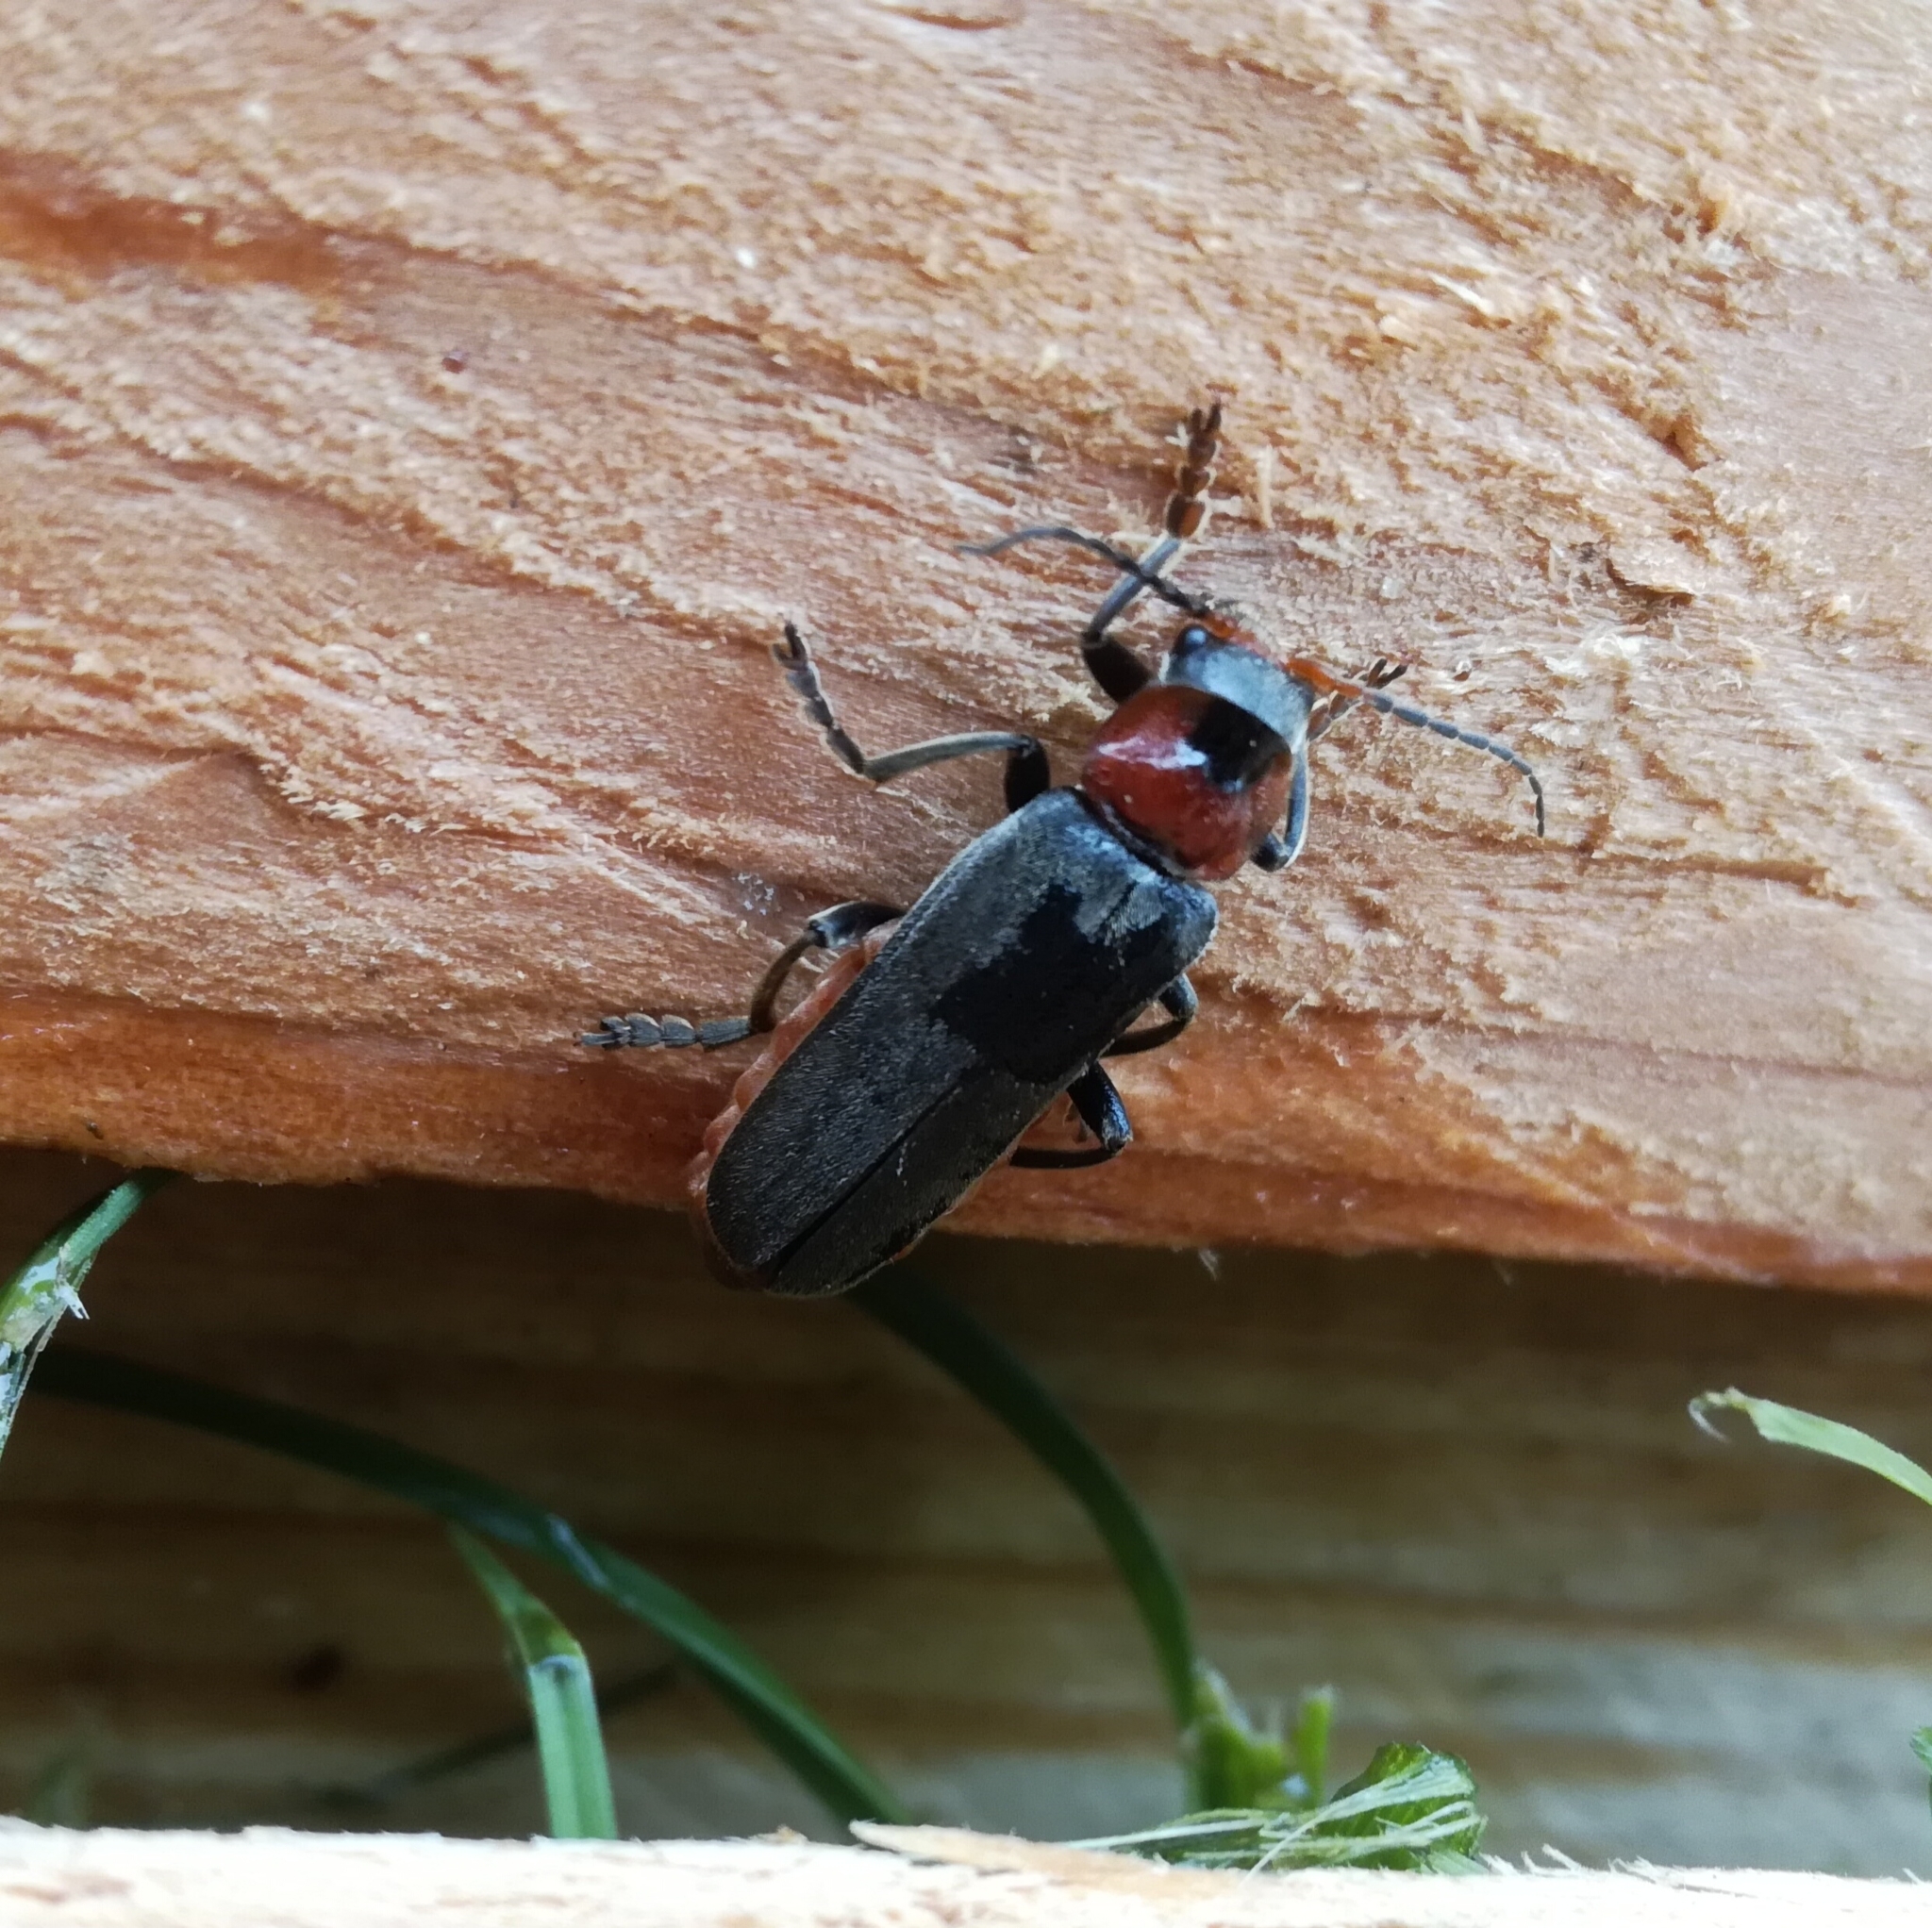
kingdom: Animalia
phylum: Arthropoda
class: Insecta
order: Coleoptera
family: Cantharidae
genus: Cantharis
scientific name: Cantharis fusca
